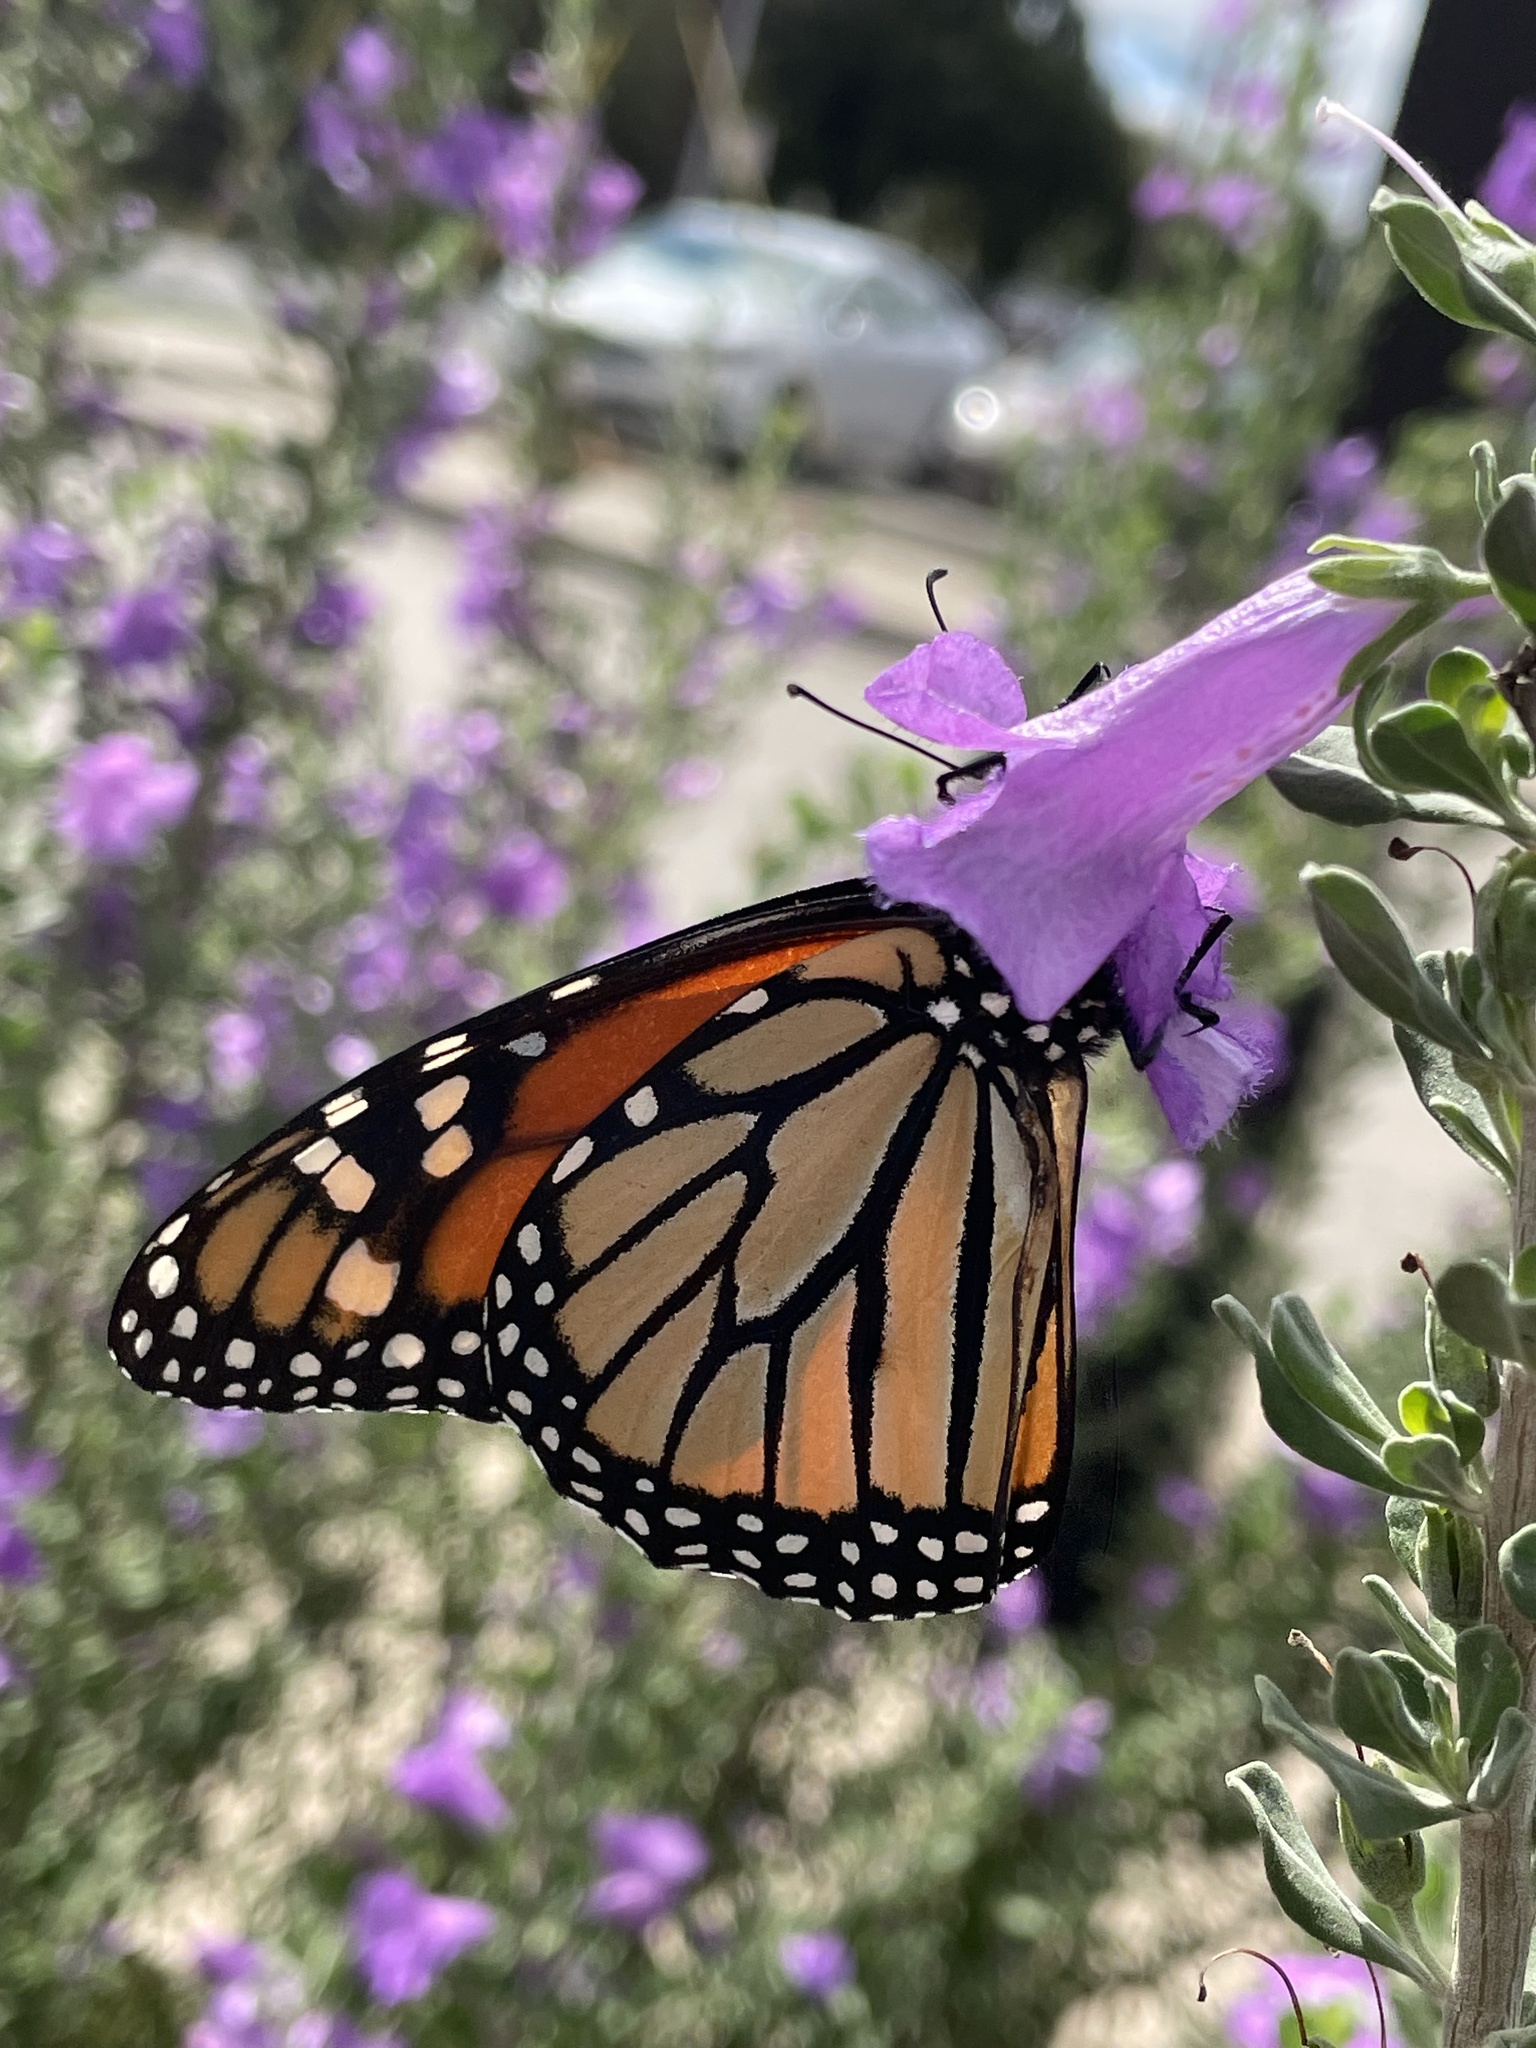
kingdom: Animalia
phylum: Arthropoda
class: Insecta
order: Lepidoptera
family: Nymphalidae
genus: Danaus
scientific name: Danaus plexippus
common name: Monarch
